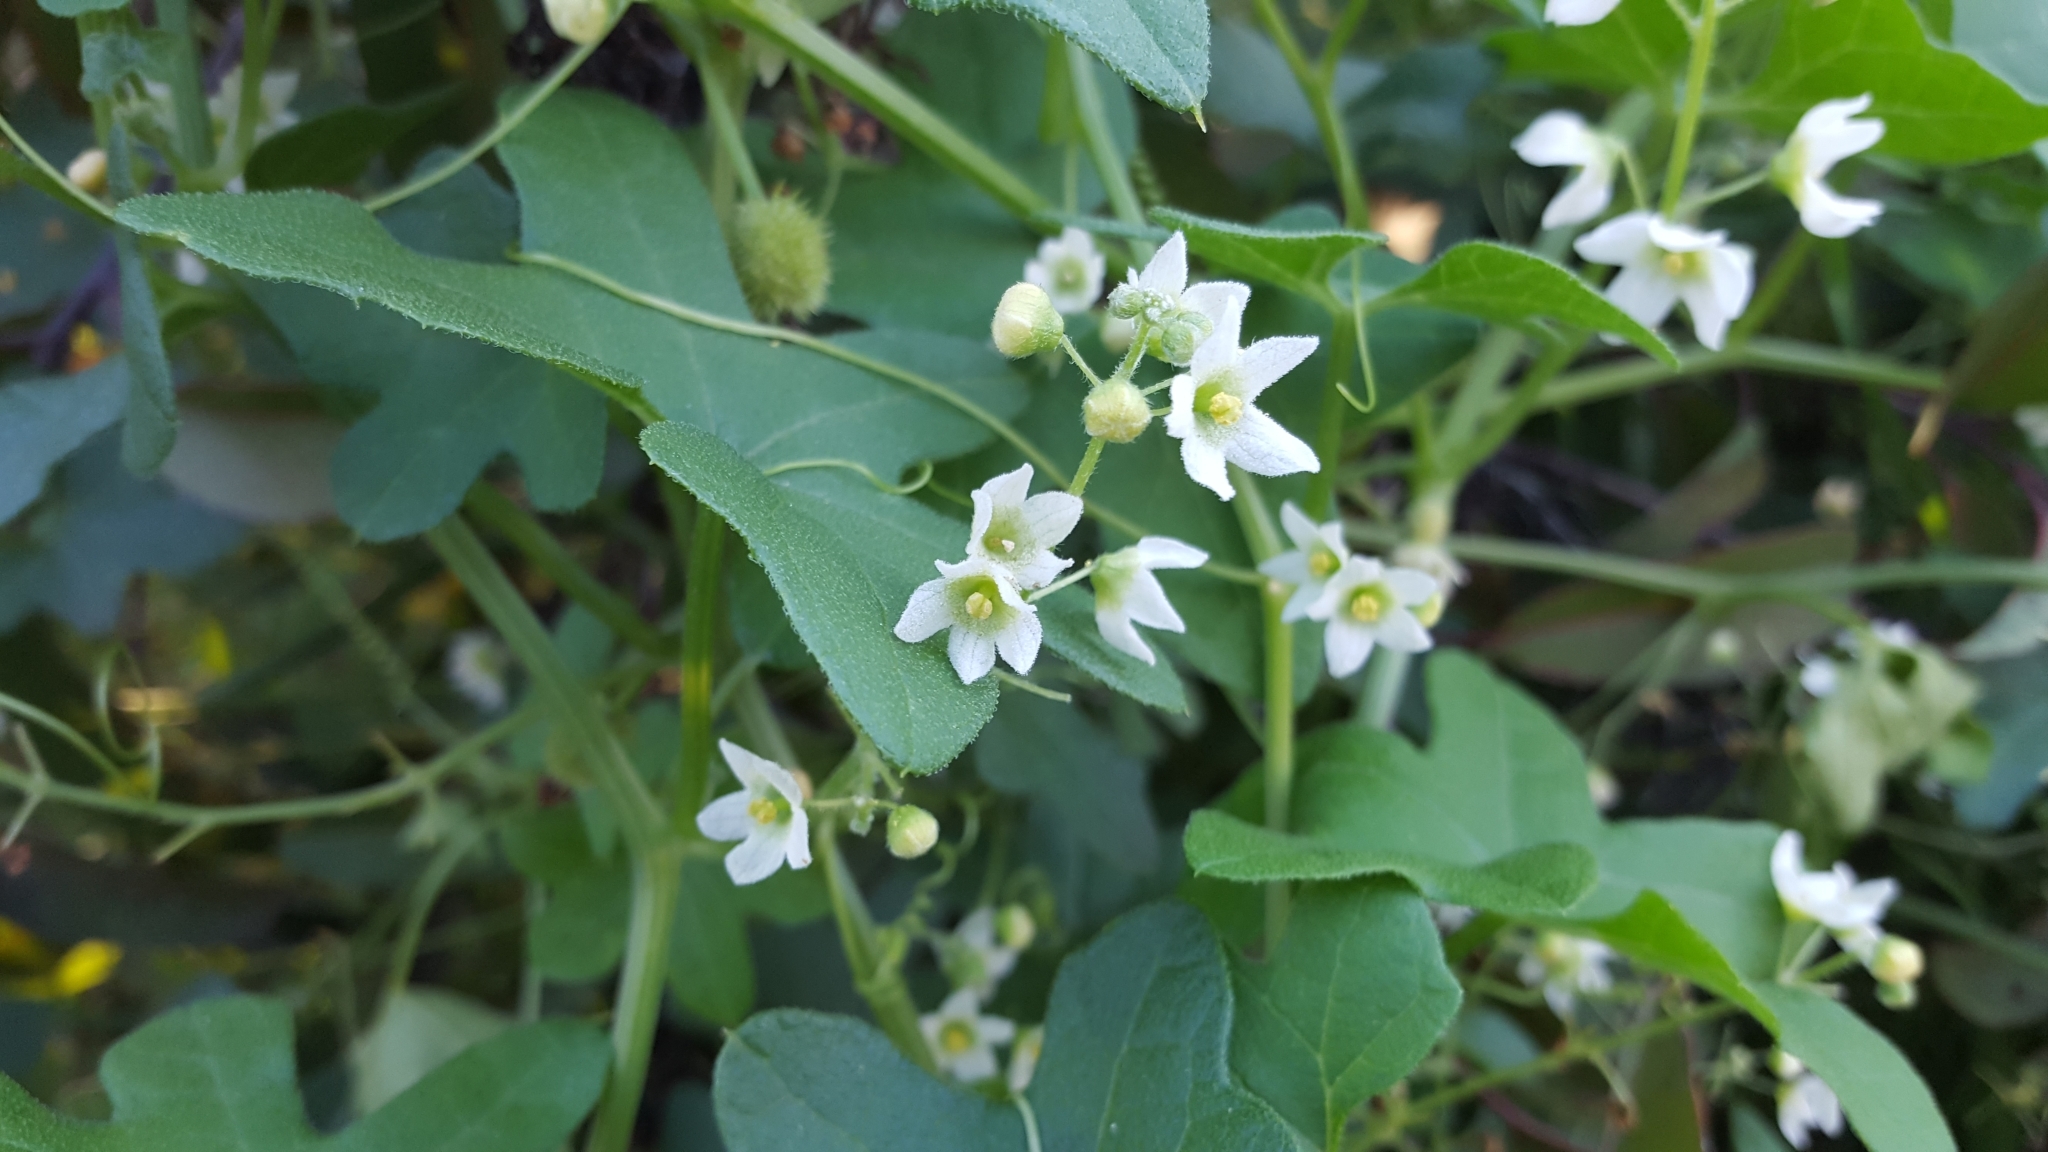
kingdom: Plantae
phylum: Tracheophyta
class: Magnoliopsida
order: Cucurbitales
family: Cucurbitaceae
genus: Marah
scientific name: Marah macrocarpa
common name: Cucamonga manroot
